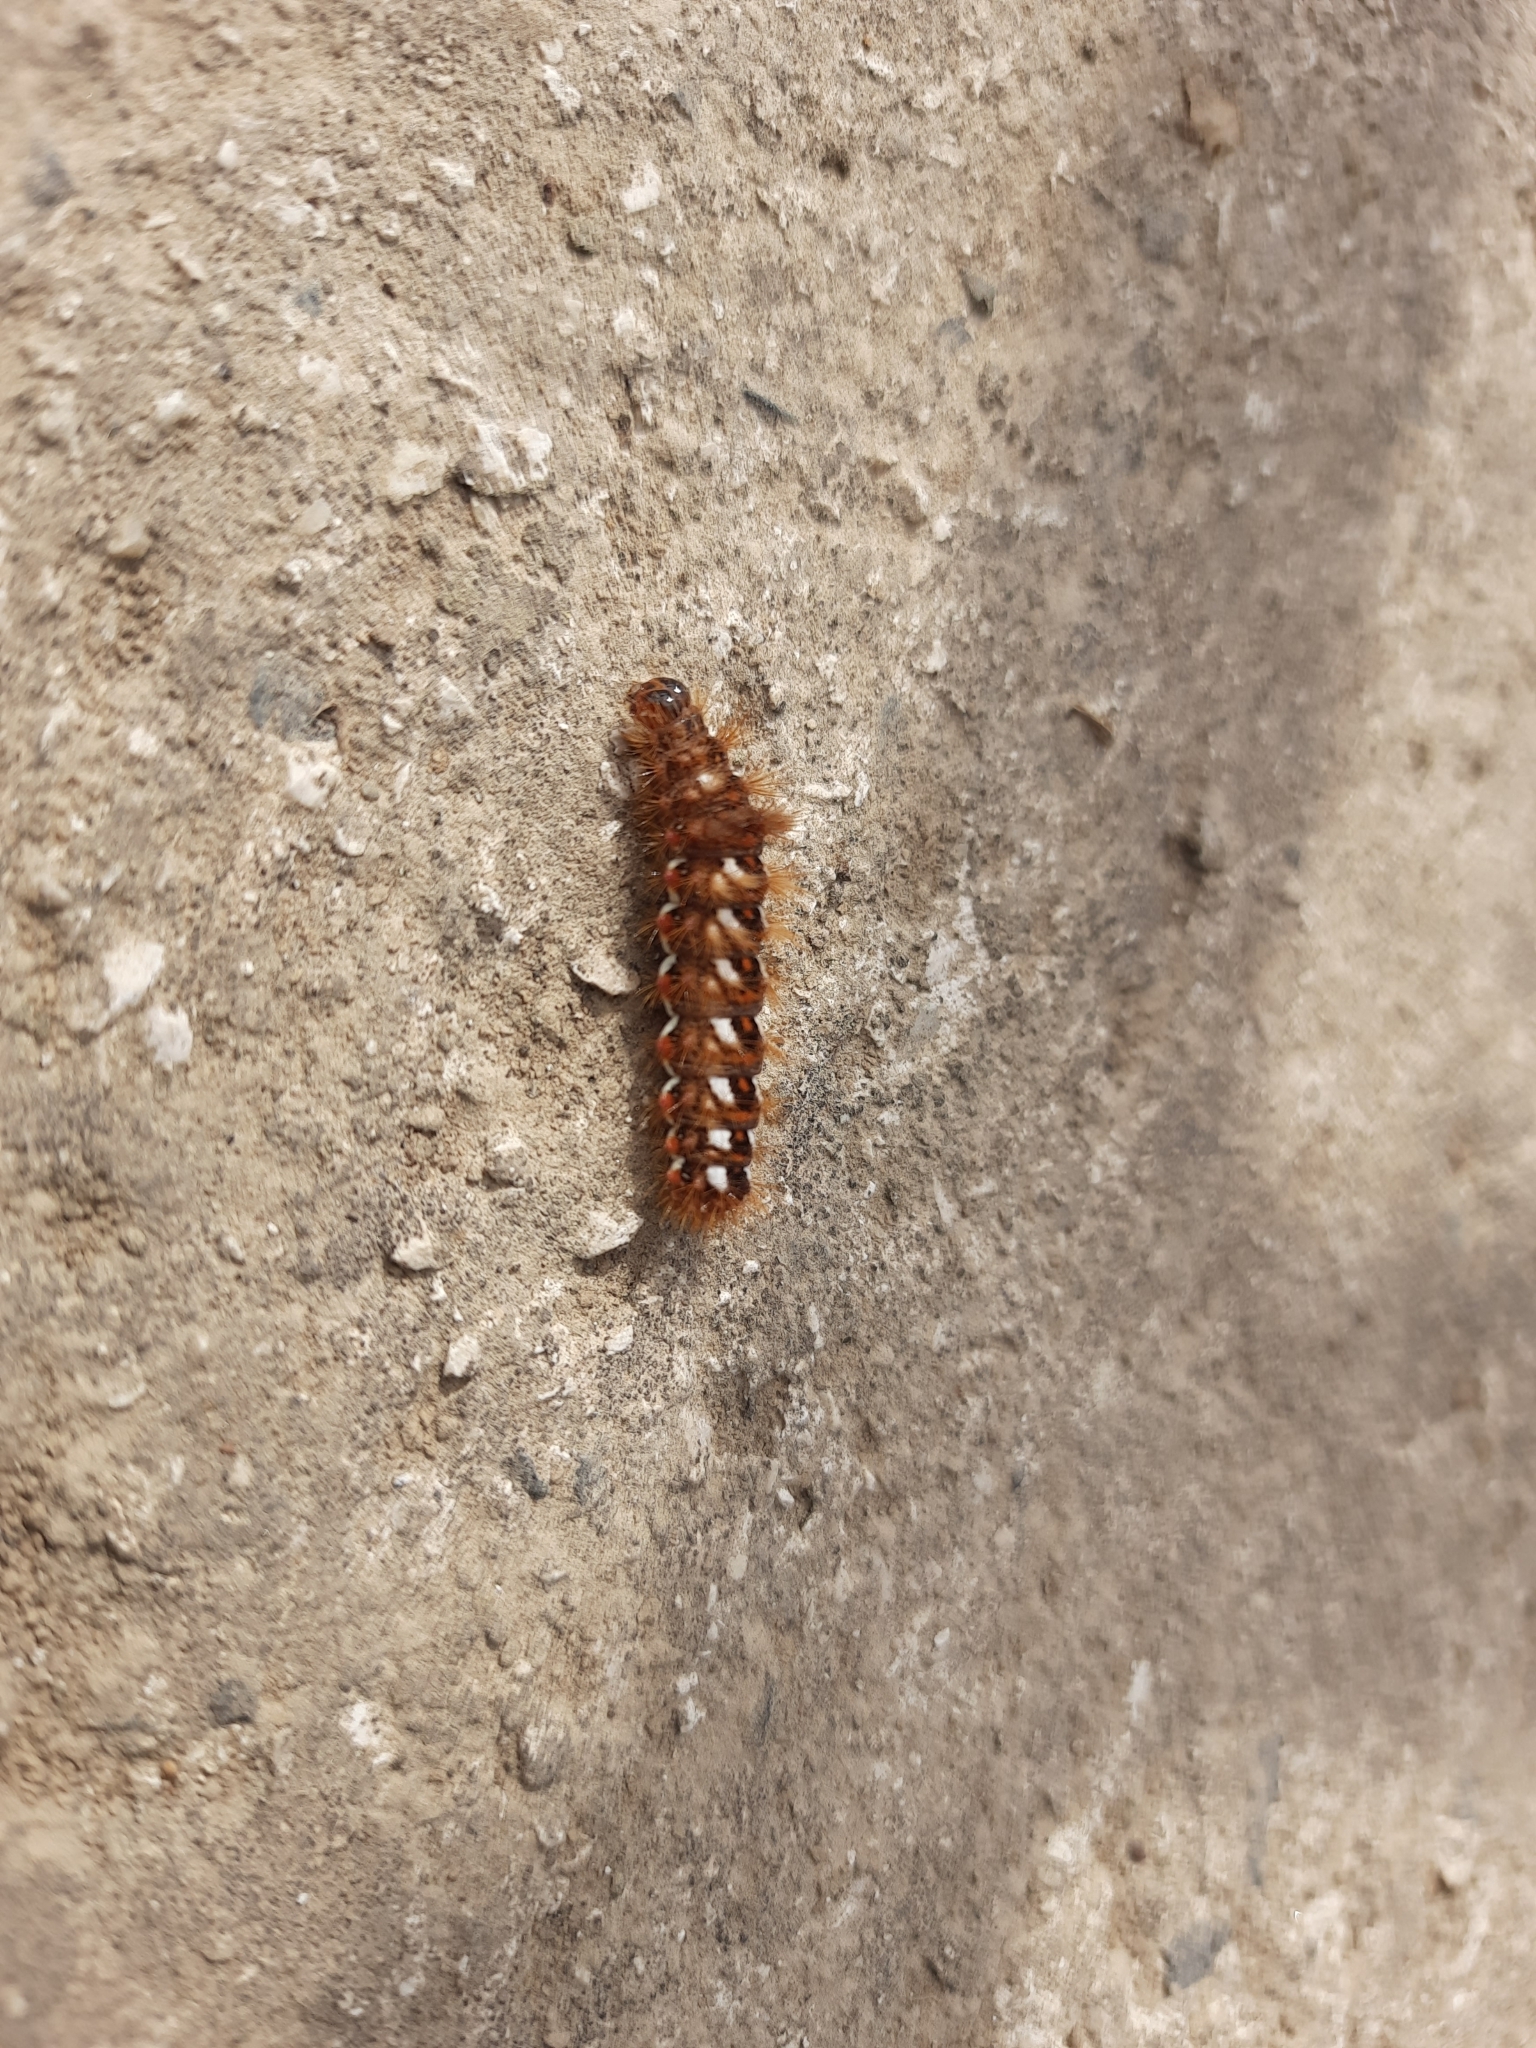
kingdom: Animalia
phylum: Arthropoda
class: Insecta
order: Lepidoptera
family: Noctuidae
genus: Acronicta
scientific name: Acronicta rumicis
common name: Knot grass
